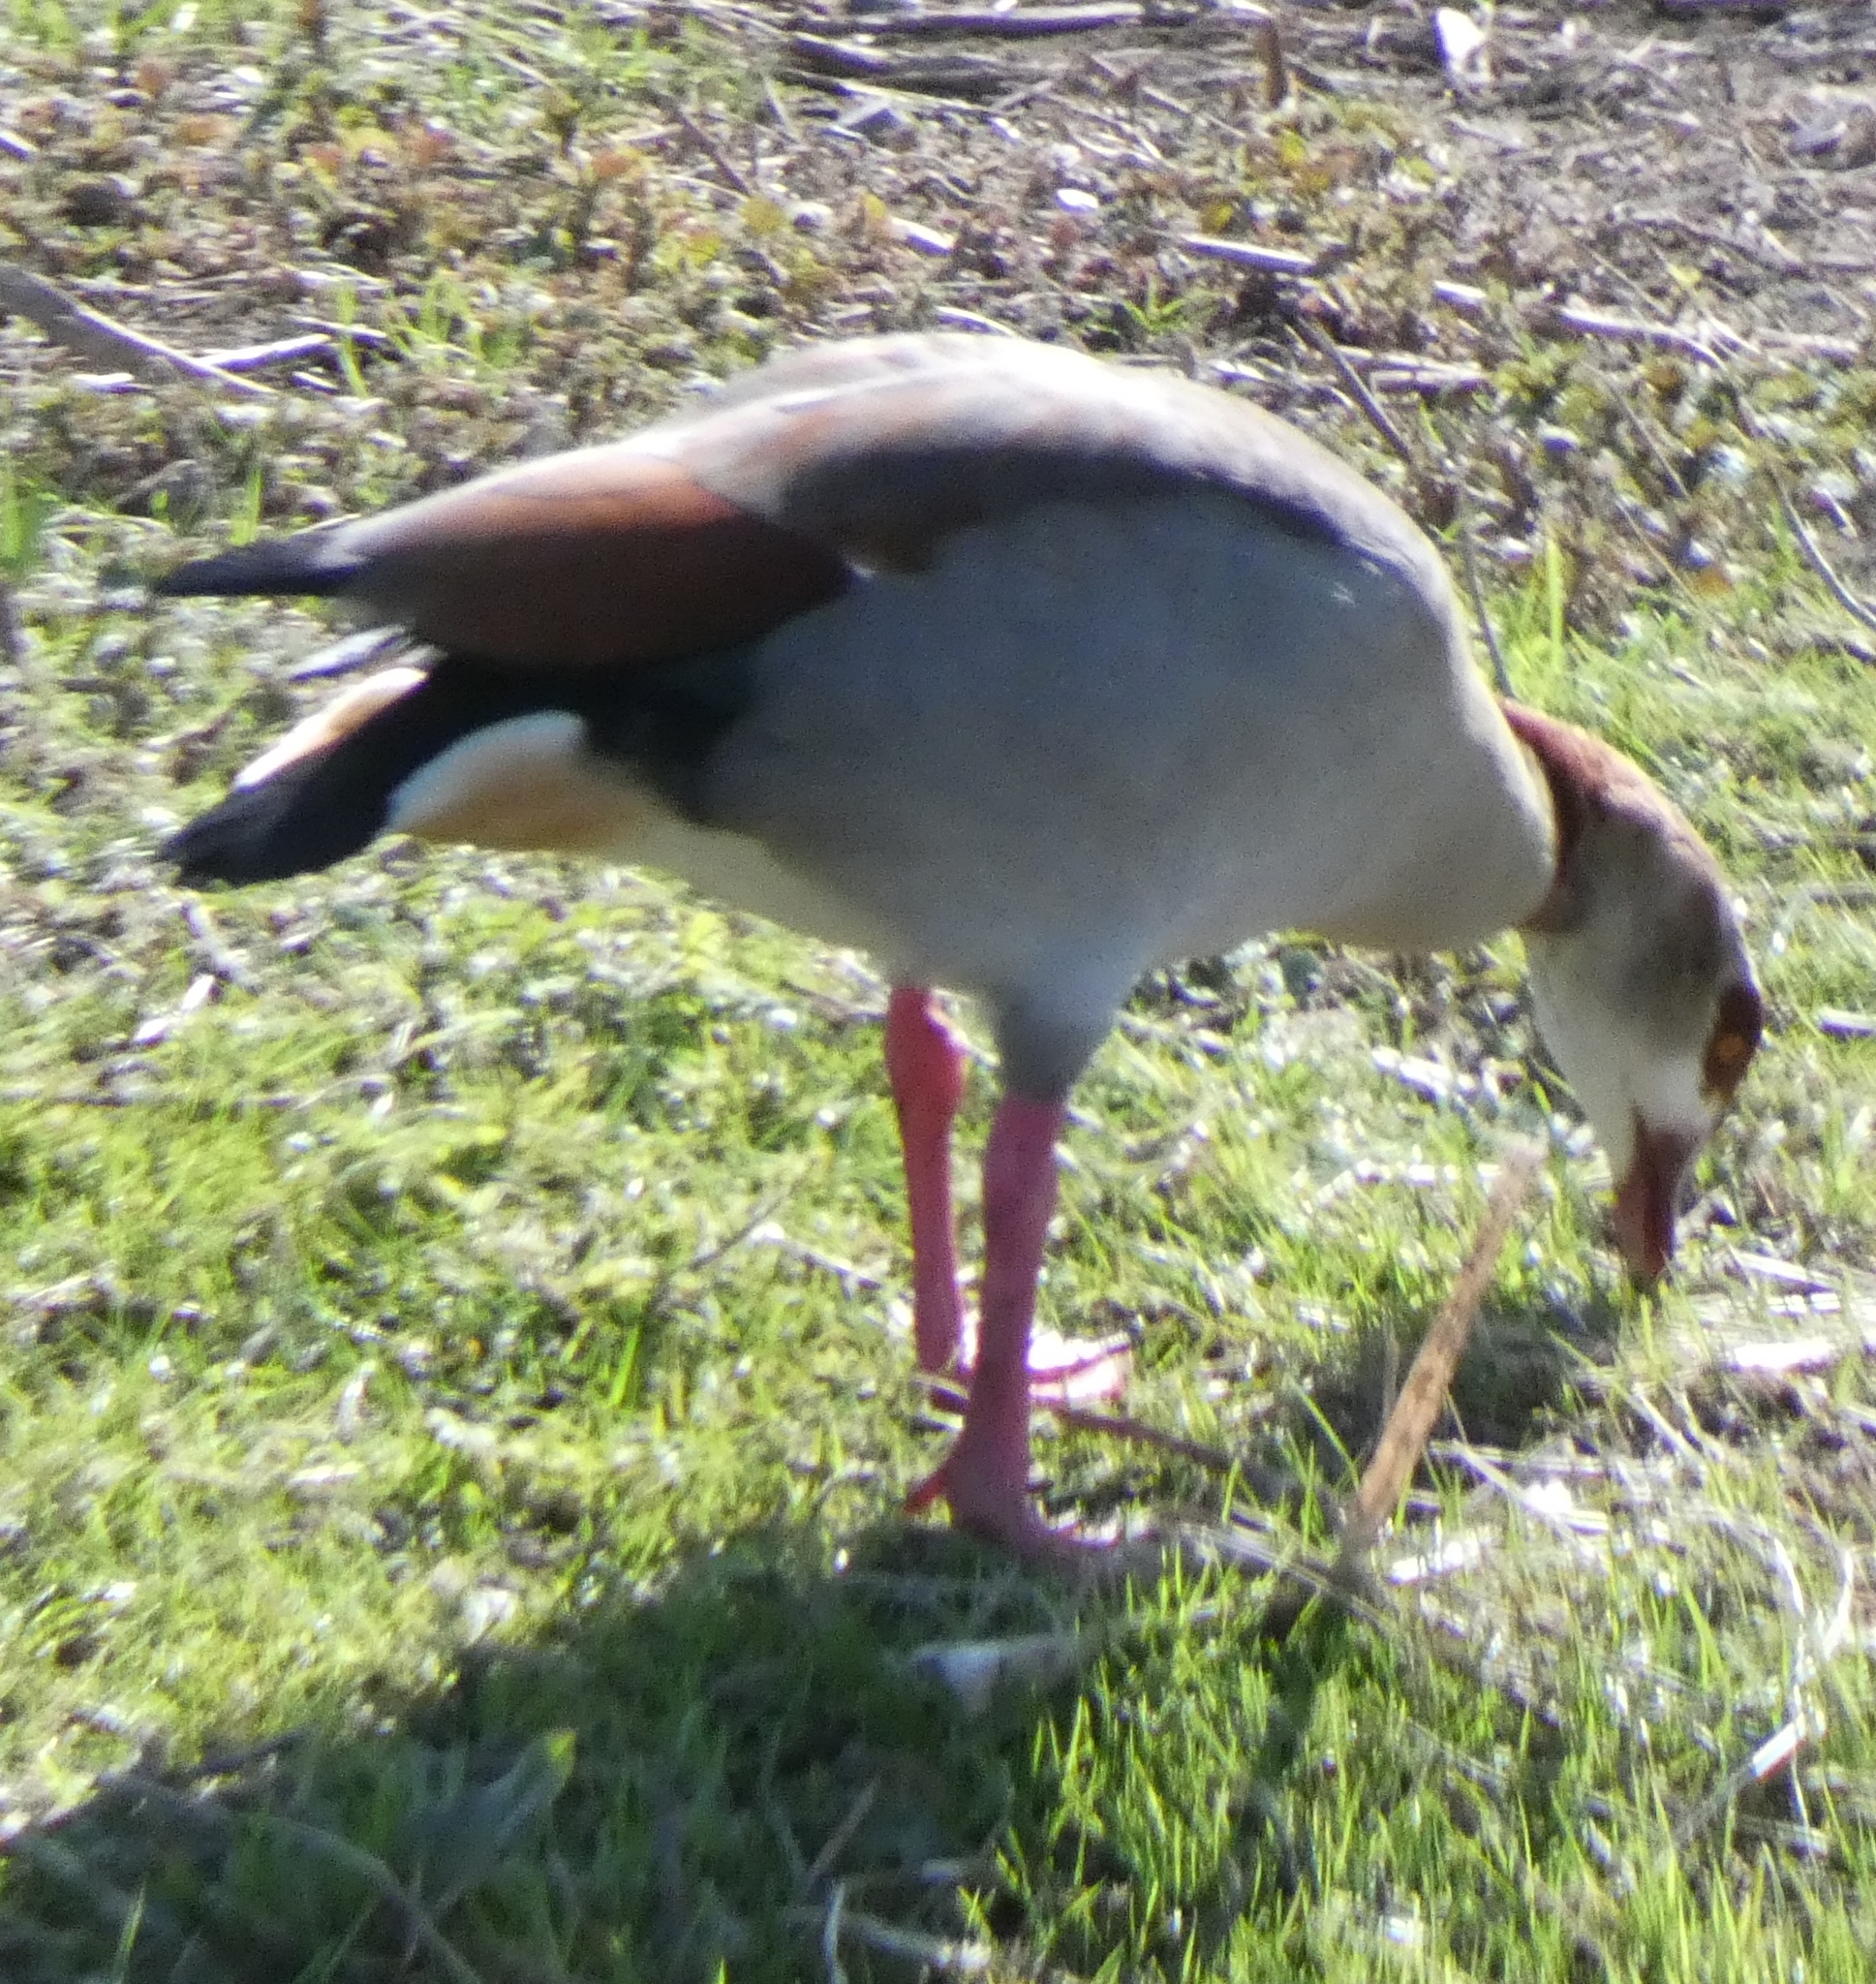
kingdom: Animalia
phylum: Chordata
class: Aves
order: Anseriformes
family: Anatidae
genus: Alopochen
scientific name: Alopochen aegyptiaca
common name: Egyptian goose
